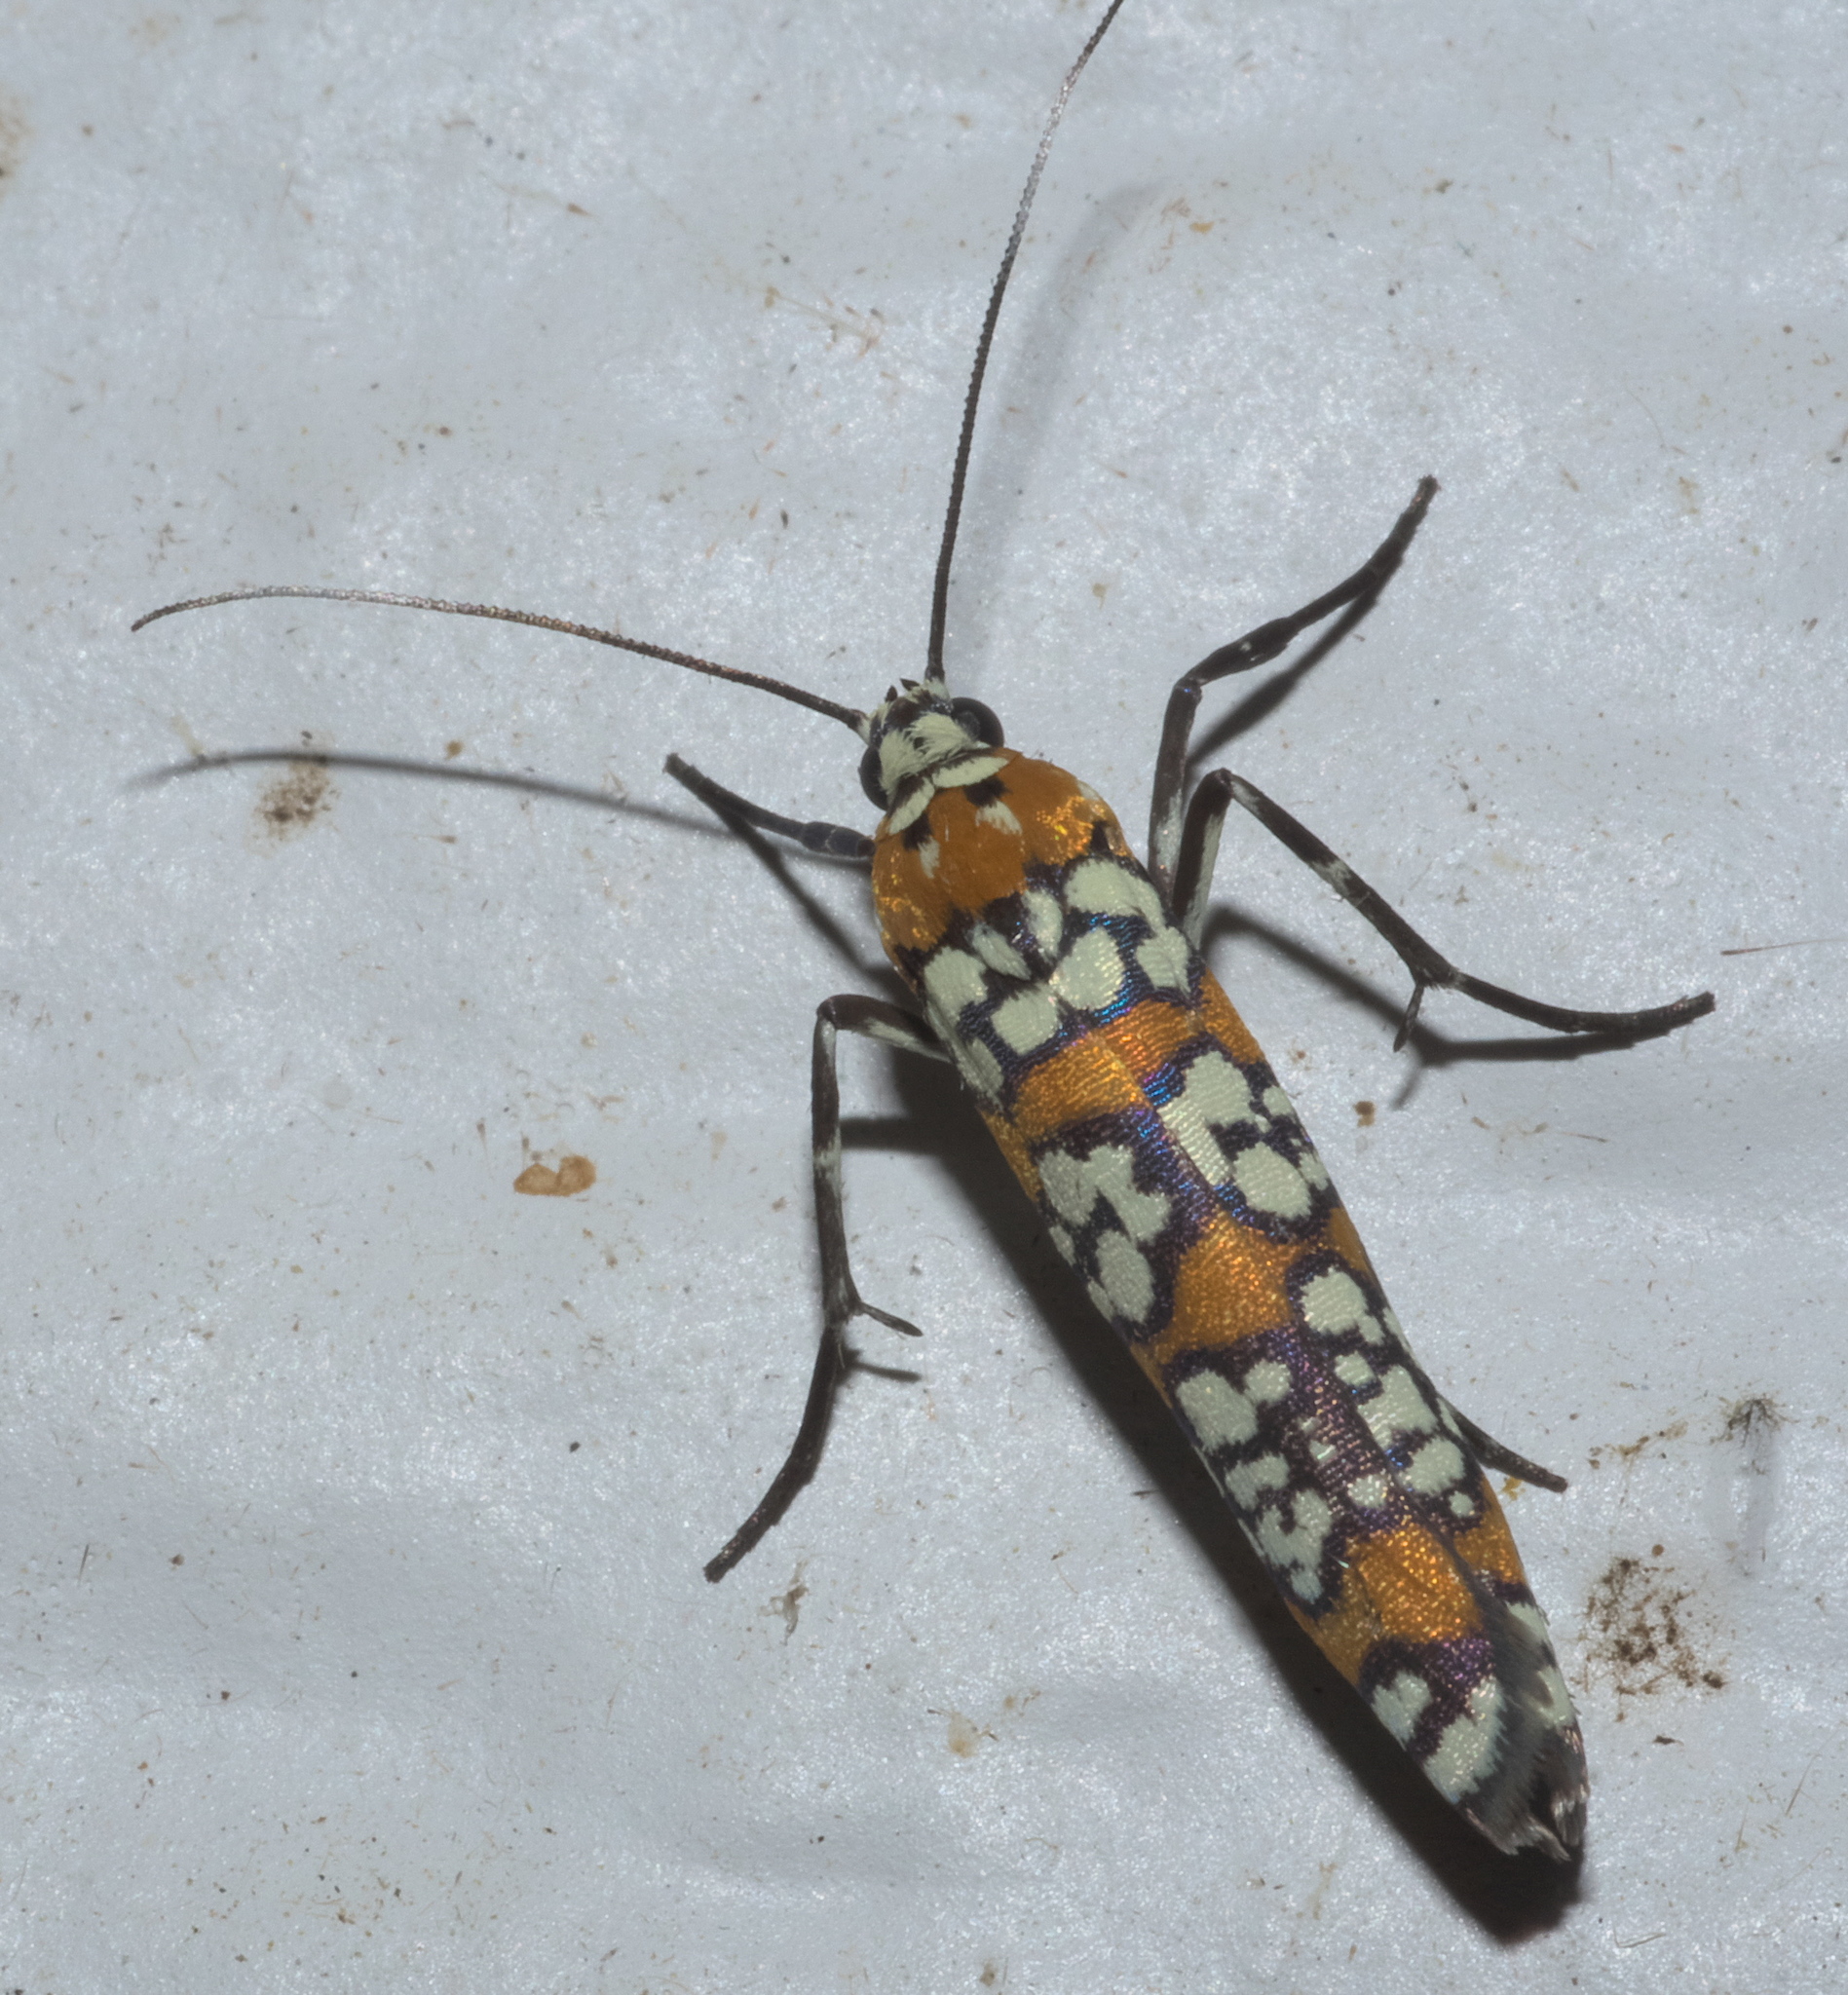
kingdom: Animalia
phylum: Arthropoda
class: Insecta
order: Lepidoptera
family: Attevidae
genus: Atteva
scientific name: Atteva punctella
